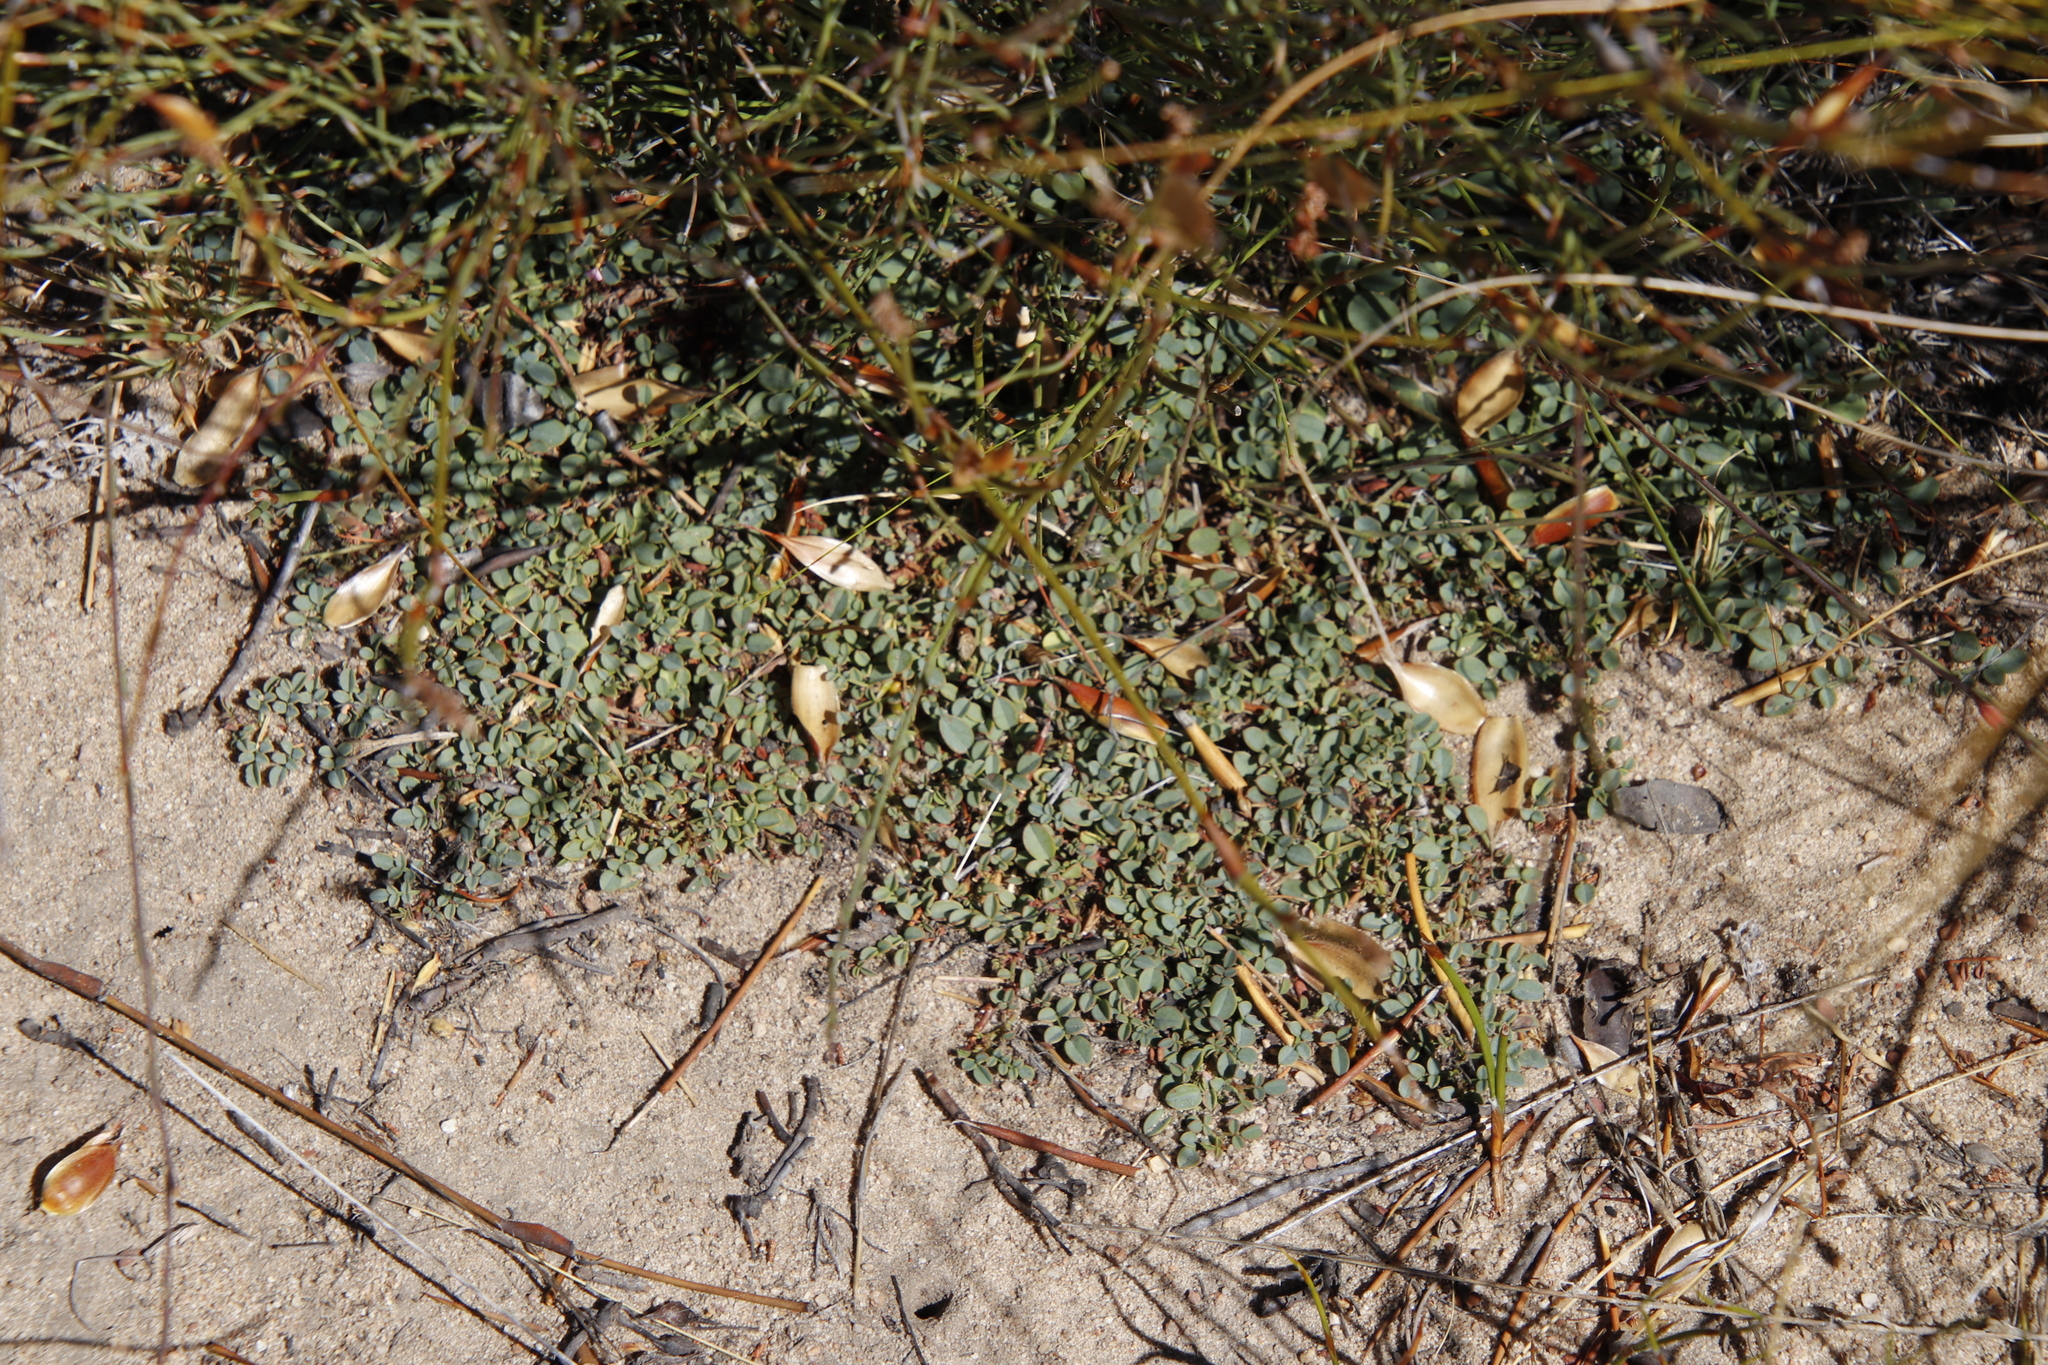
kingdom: Plantae
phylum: Tracheophyta
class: Magnoliopsida
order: Fabales
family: Fabaceae
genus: Indigofera
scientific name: Indigofera humifusa
